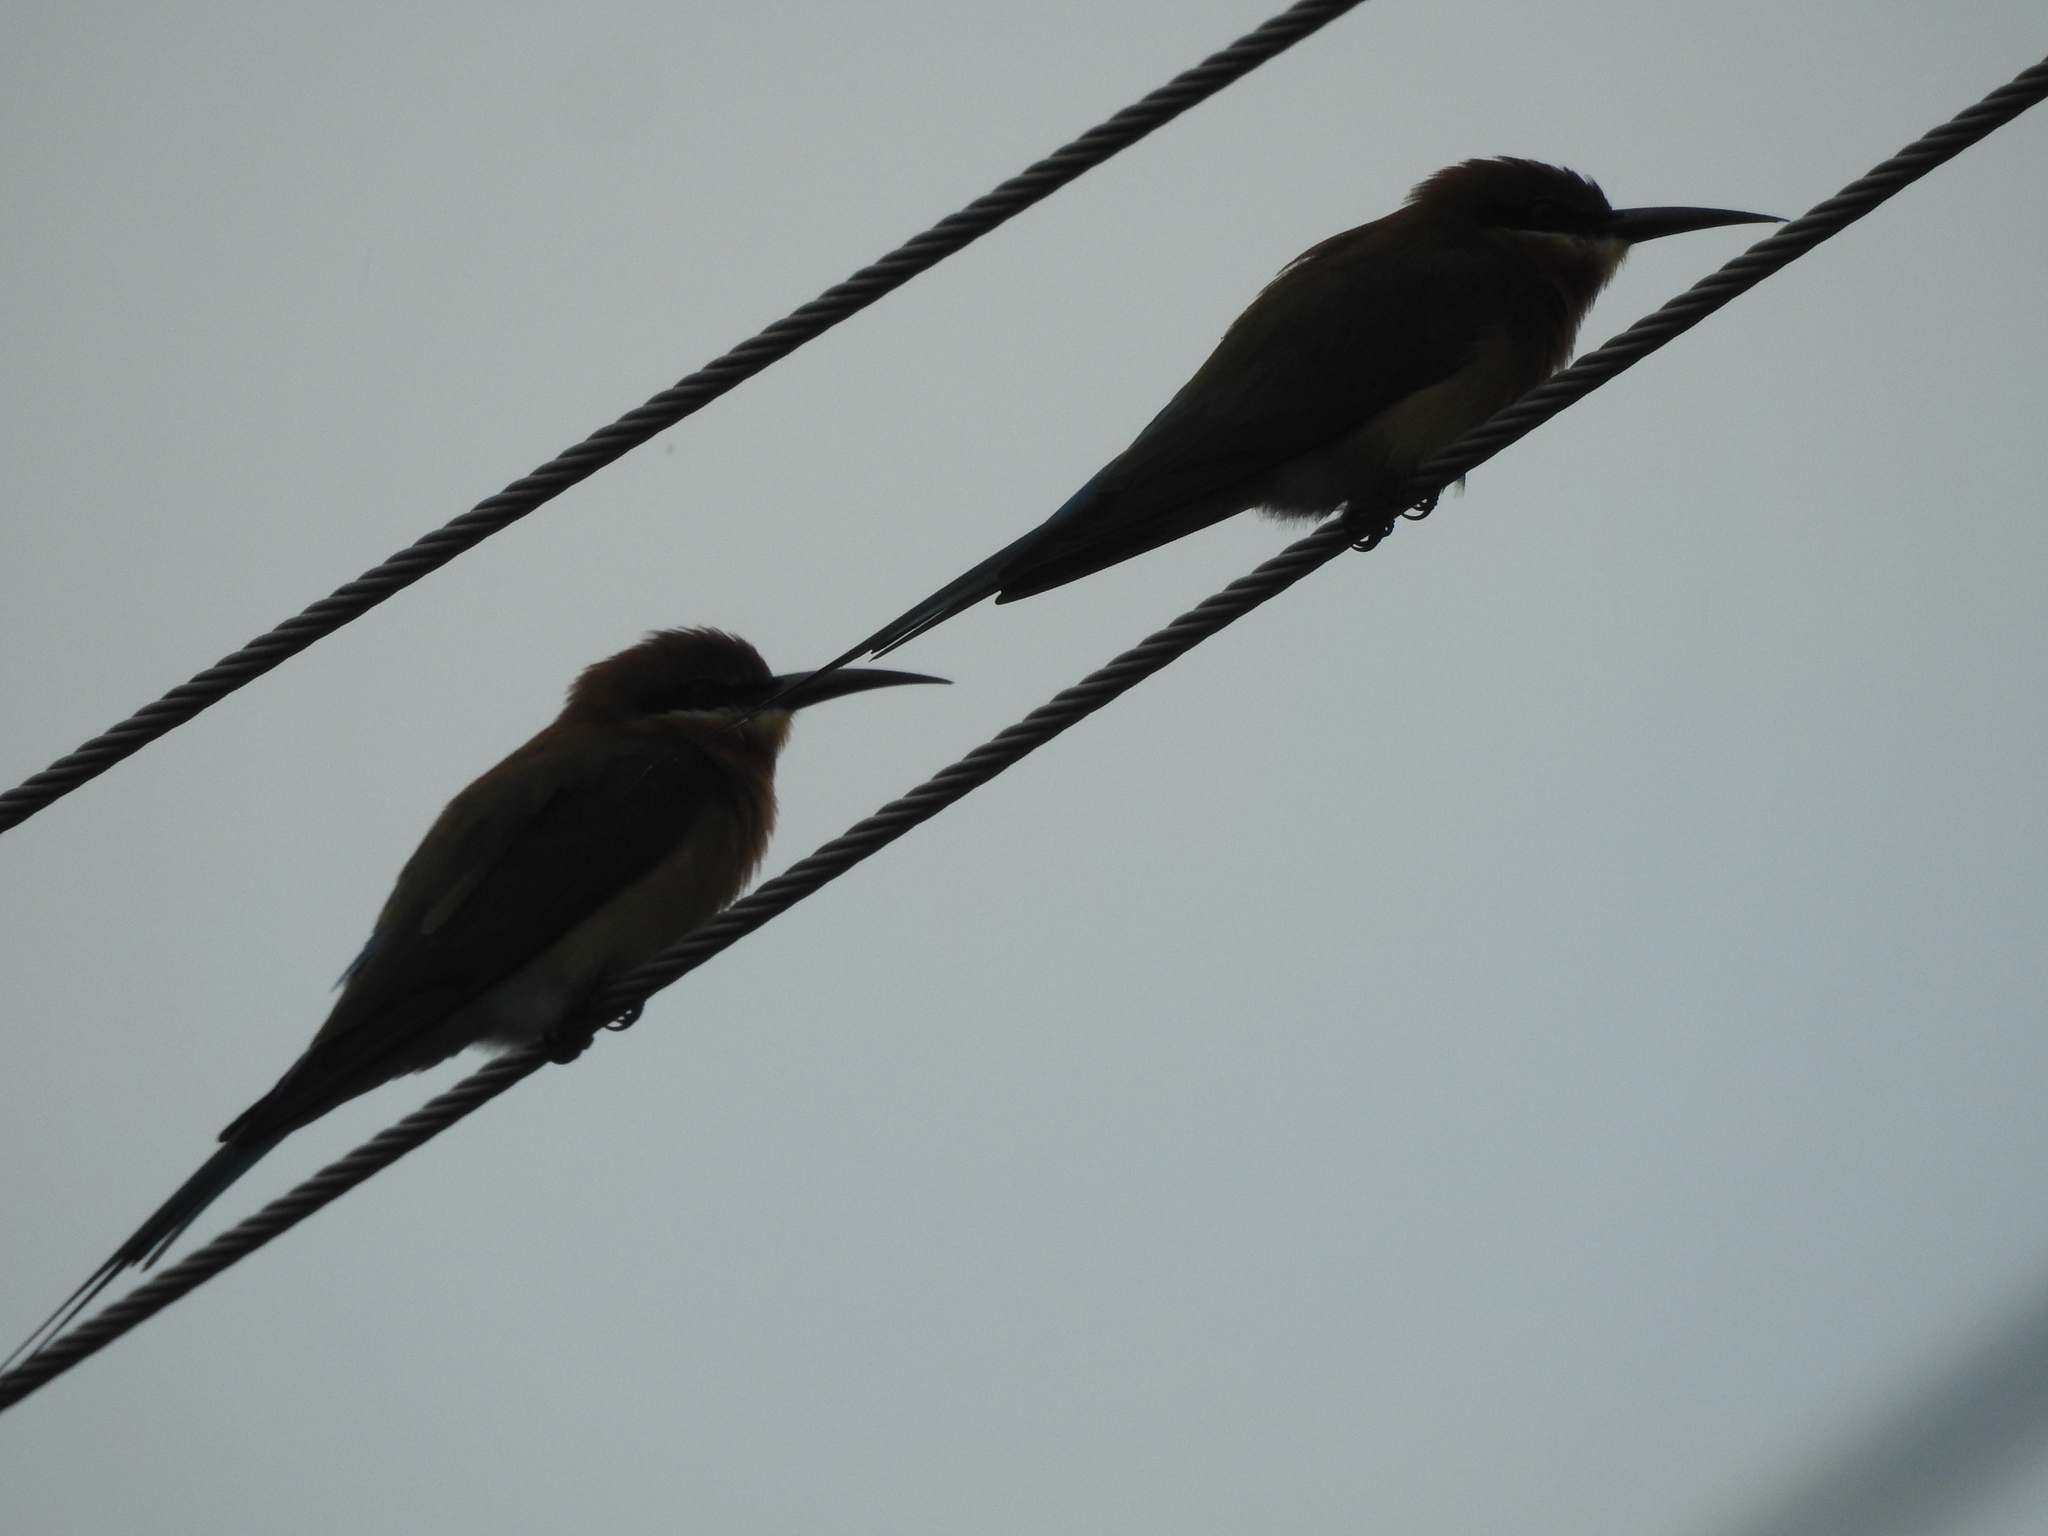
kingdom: Animalia
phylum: Chordata
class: Aves
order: Coraciiformes
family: Meropidae
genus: Merops
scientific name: Merops philippinus
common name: Blue-tailed bee-eater
